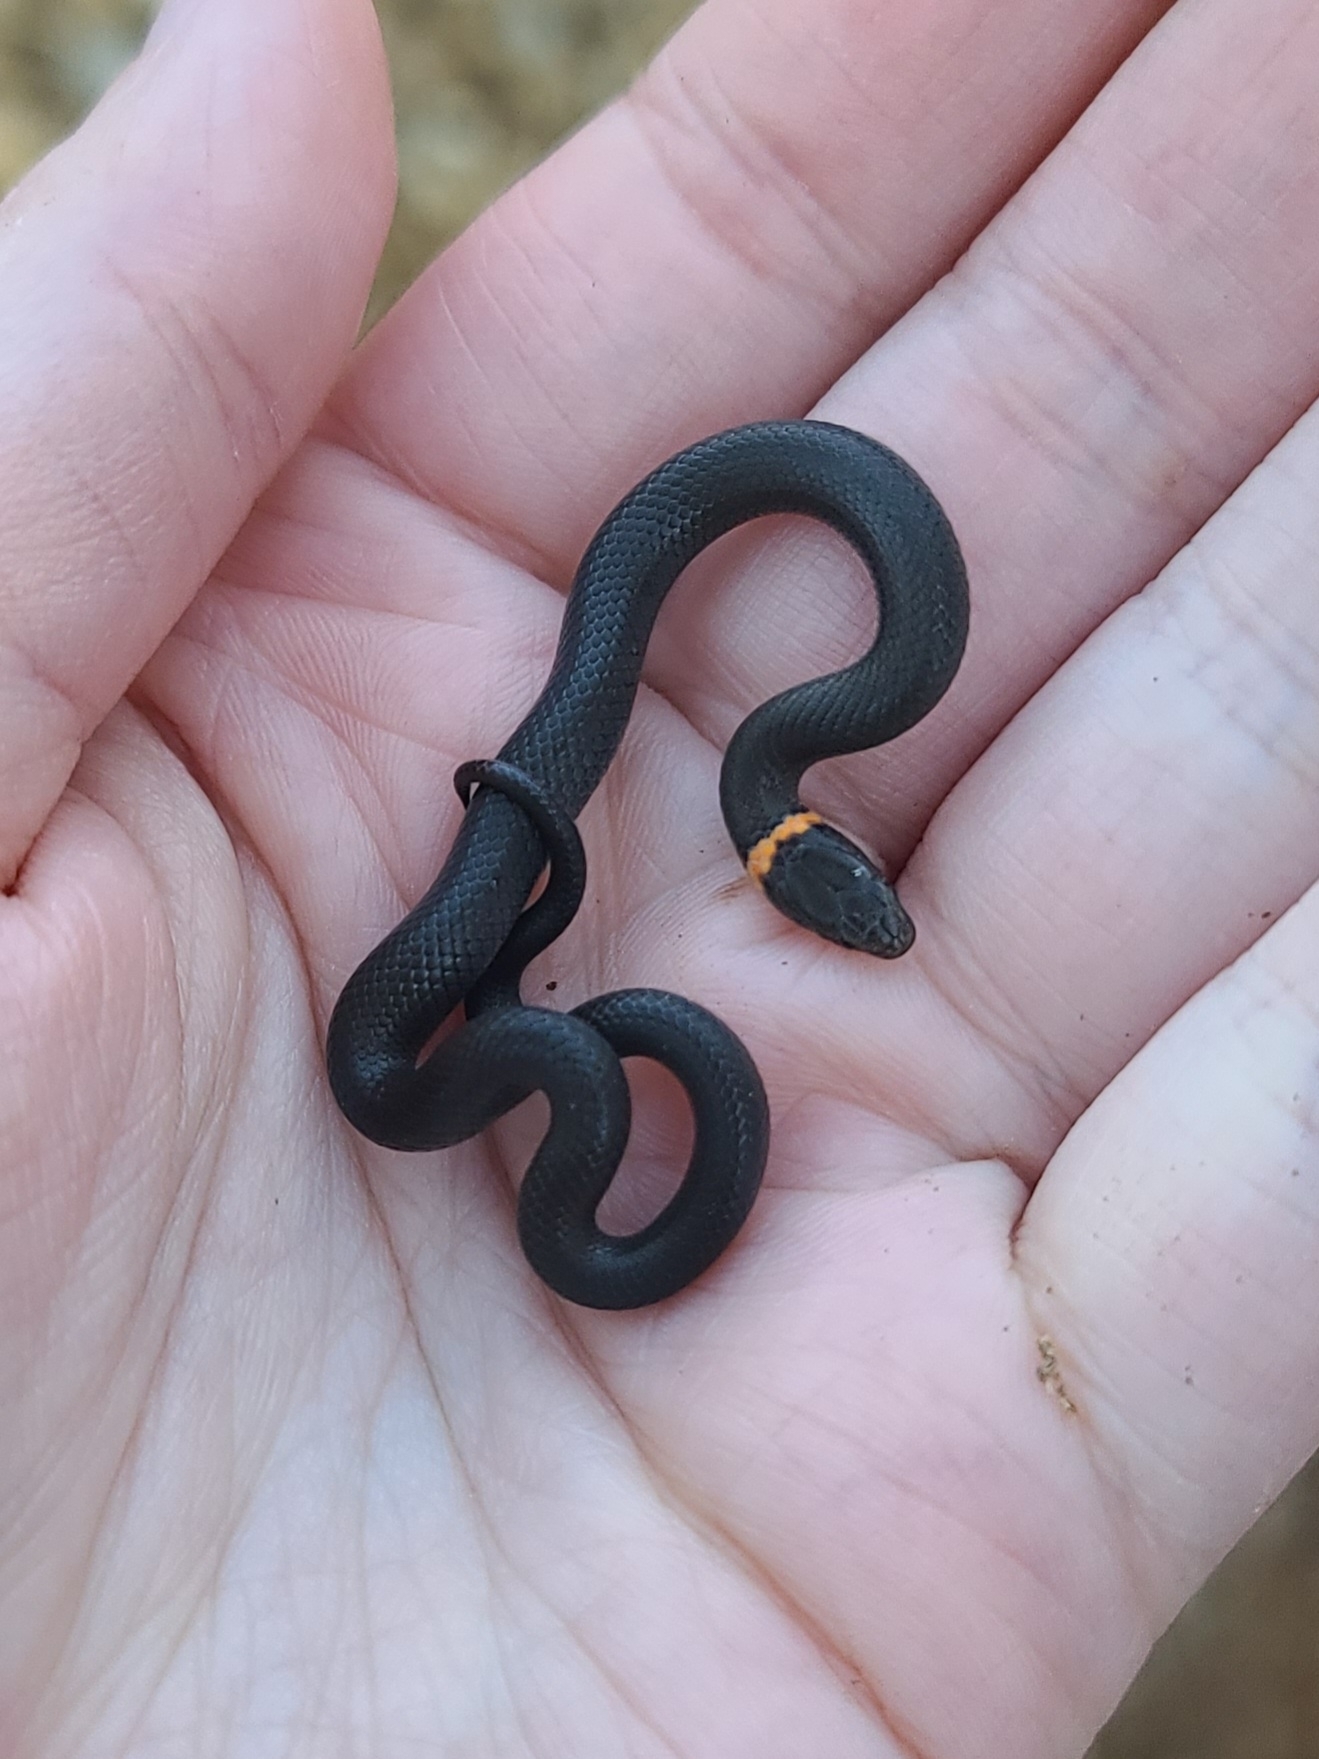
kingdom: Animalia
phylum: Chordata
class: Squamata
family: Colubridae
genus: Diadophis
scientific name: Diadophis punctatus
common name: Ringneck snake
